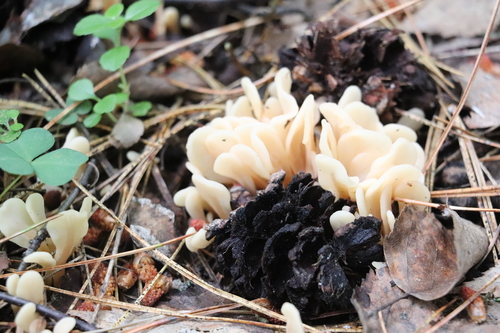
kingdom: Fungi
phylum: Ascomycota
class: Leotiomycetes
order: Rhytismatales
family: Cudoniaceae
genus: Spathularia
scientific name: Spathularia rufa
